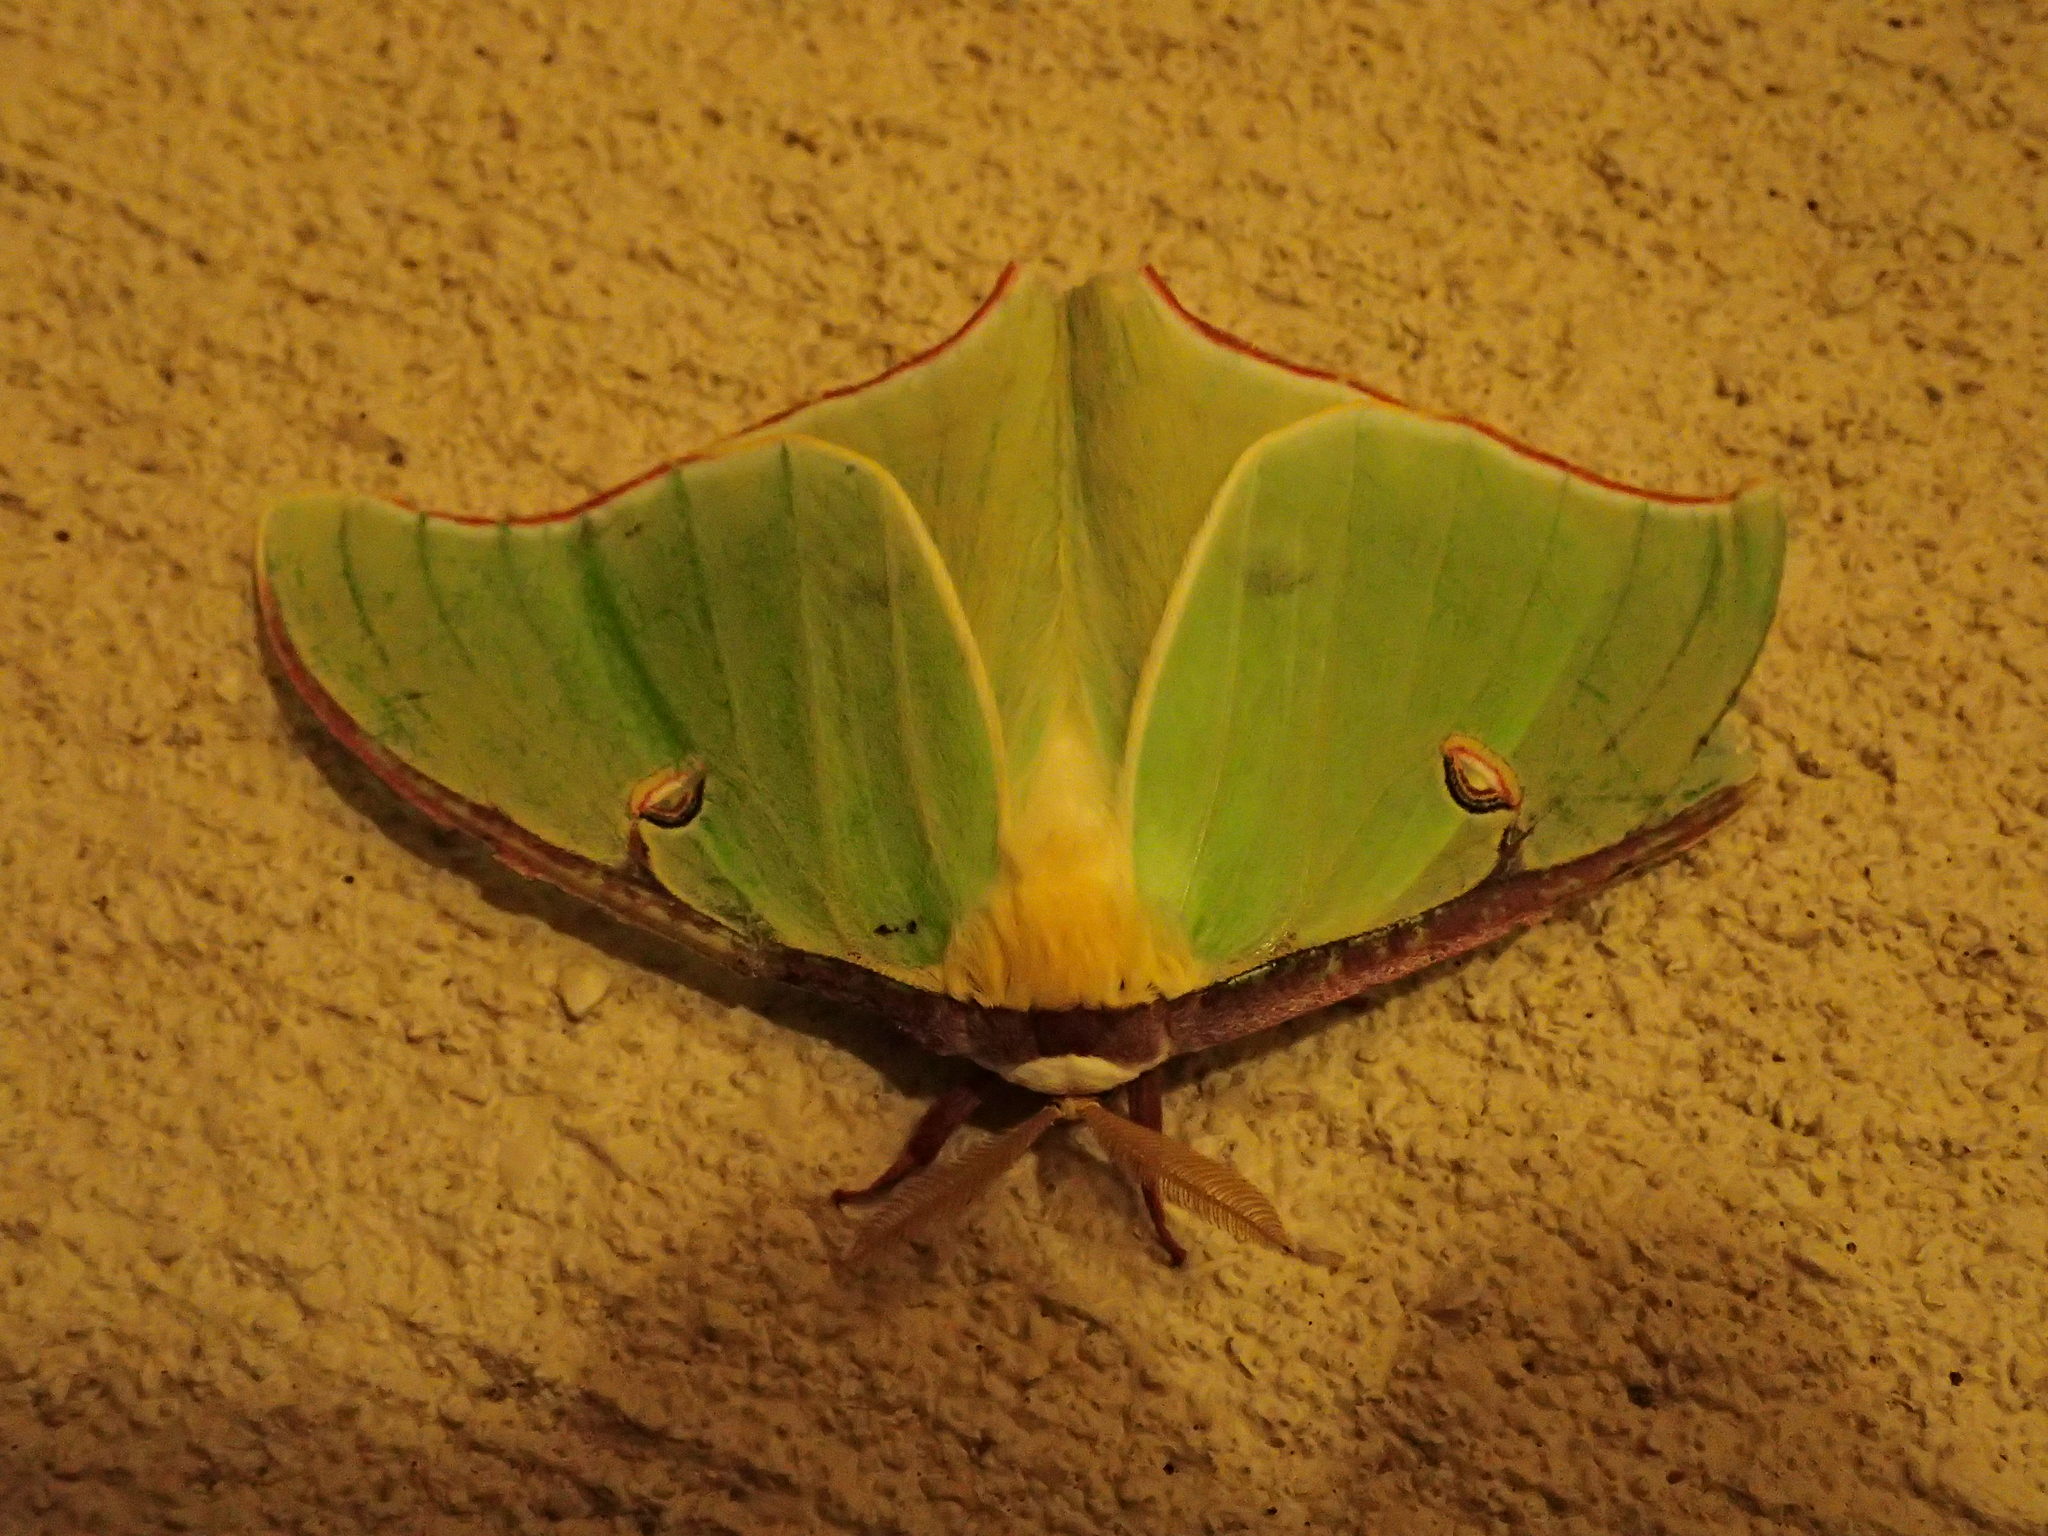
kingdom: Animalia
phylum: Arthropoda
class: Insecta
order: Lepidoptera
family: Saturniidae
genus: Actias
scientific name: Actias luna
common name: Luna moth
